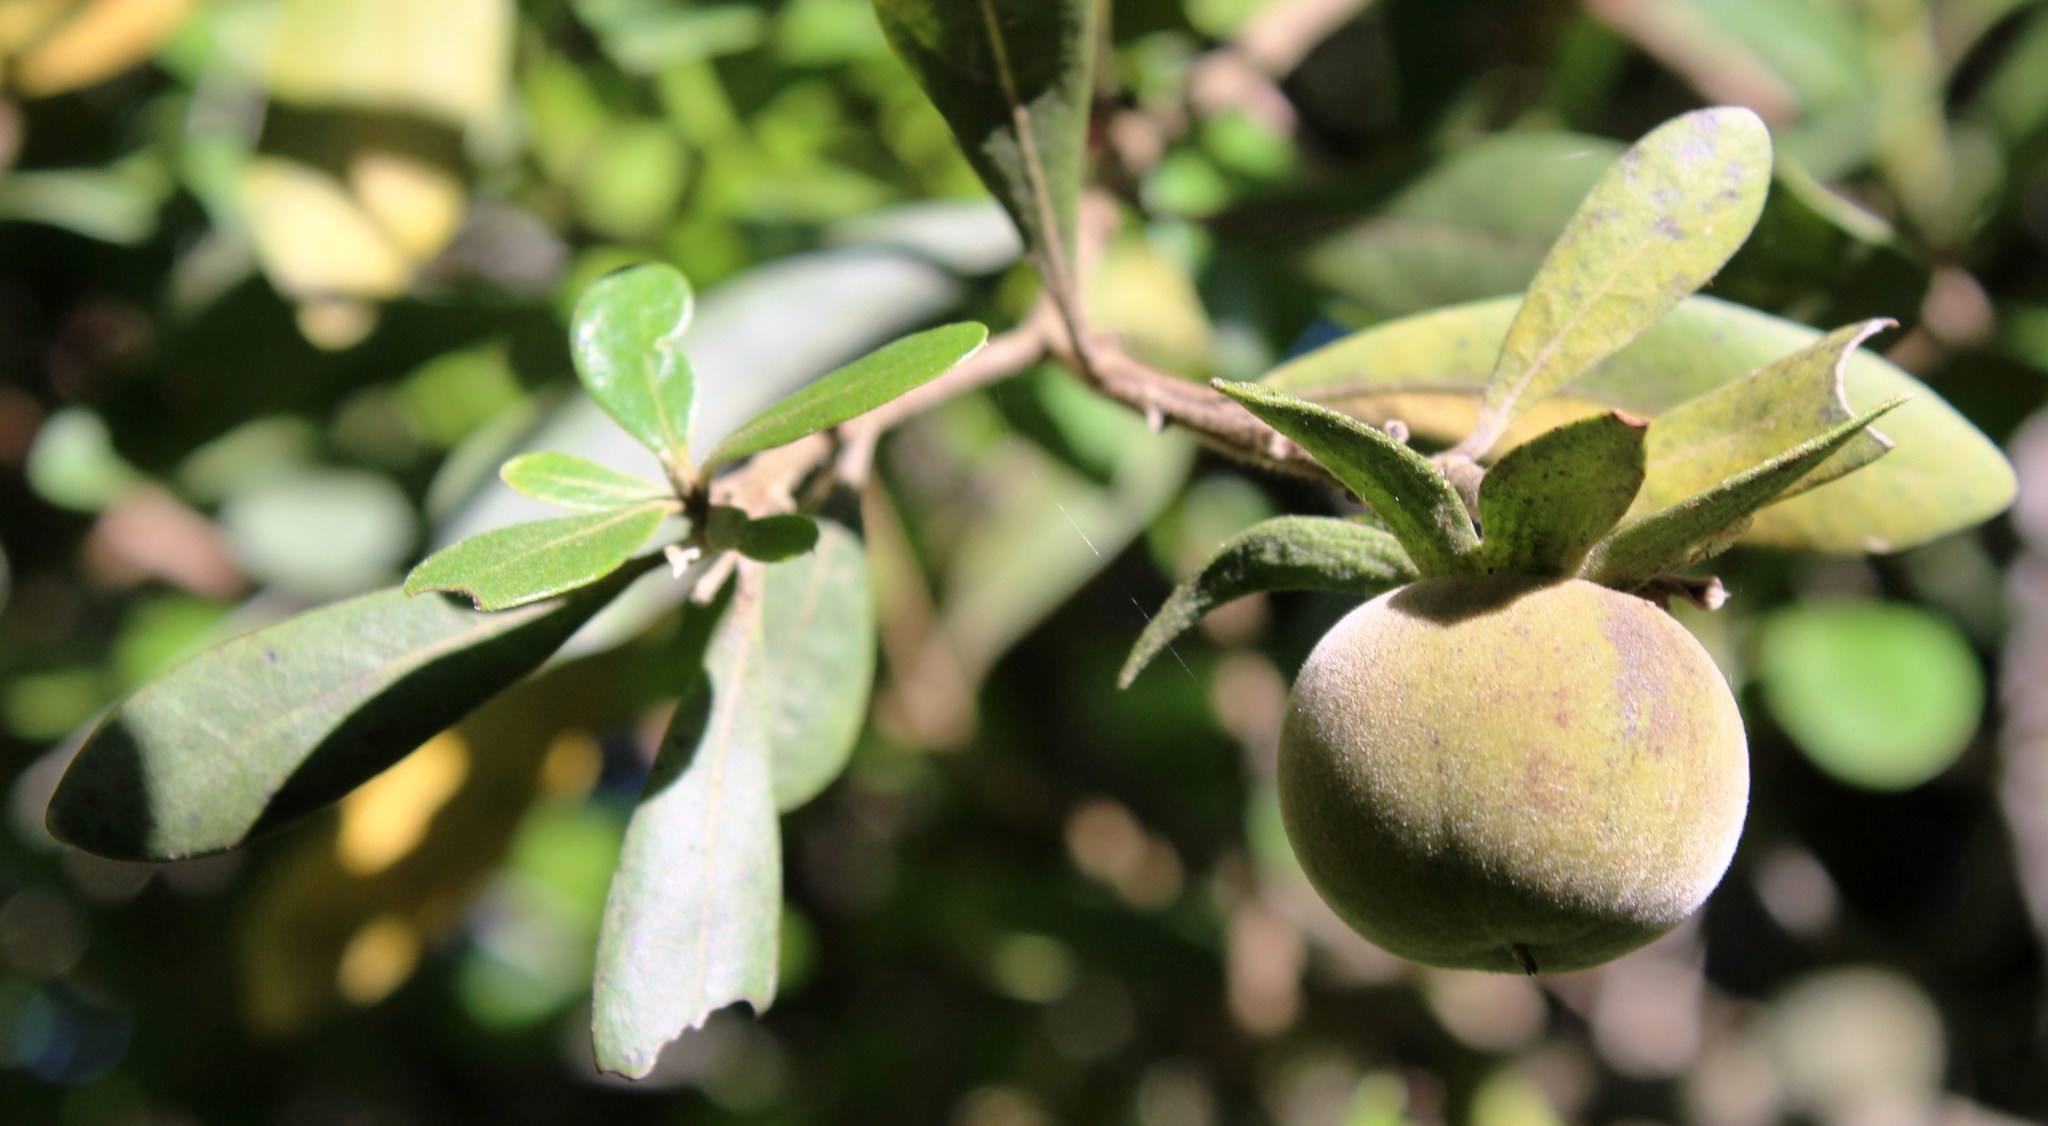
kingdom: Plantae
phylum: Tracheophyta
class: Magnoliopsida
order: Ericales
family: Ebenaceae
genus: Diospyros
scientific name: Diospyros dichrophylla
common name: Common star-apple
